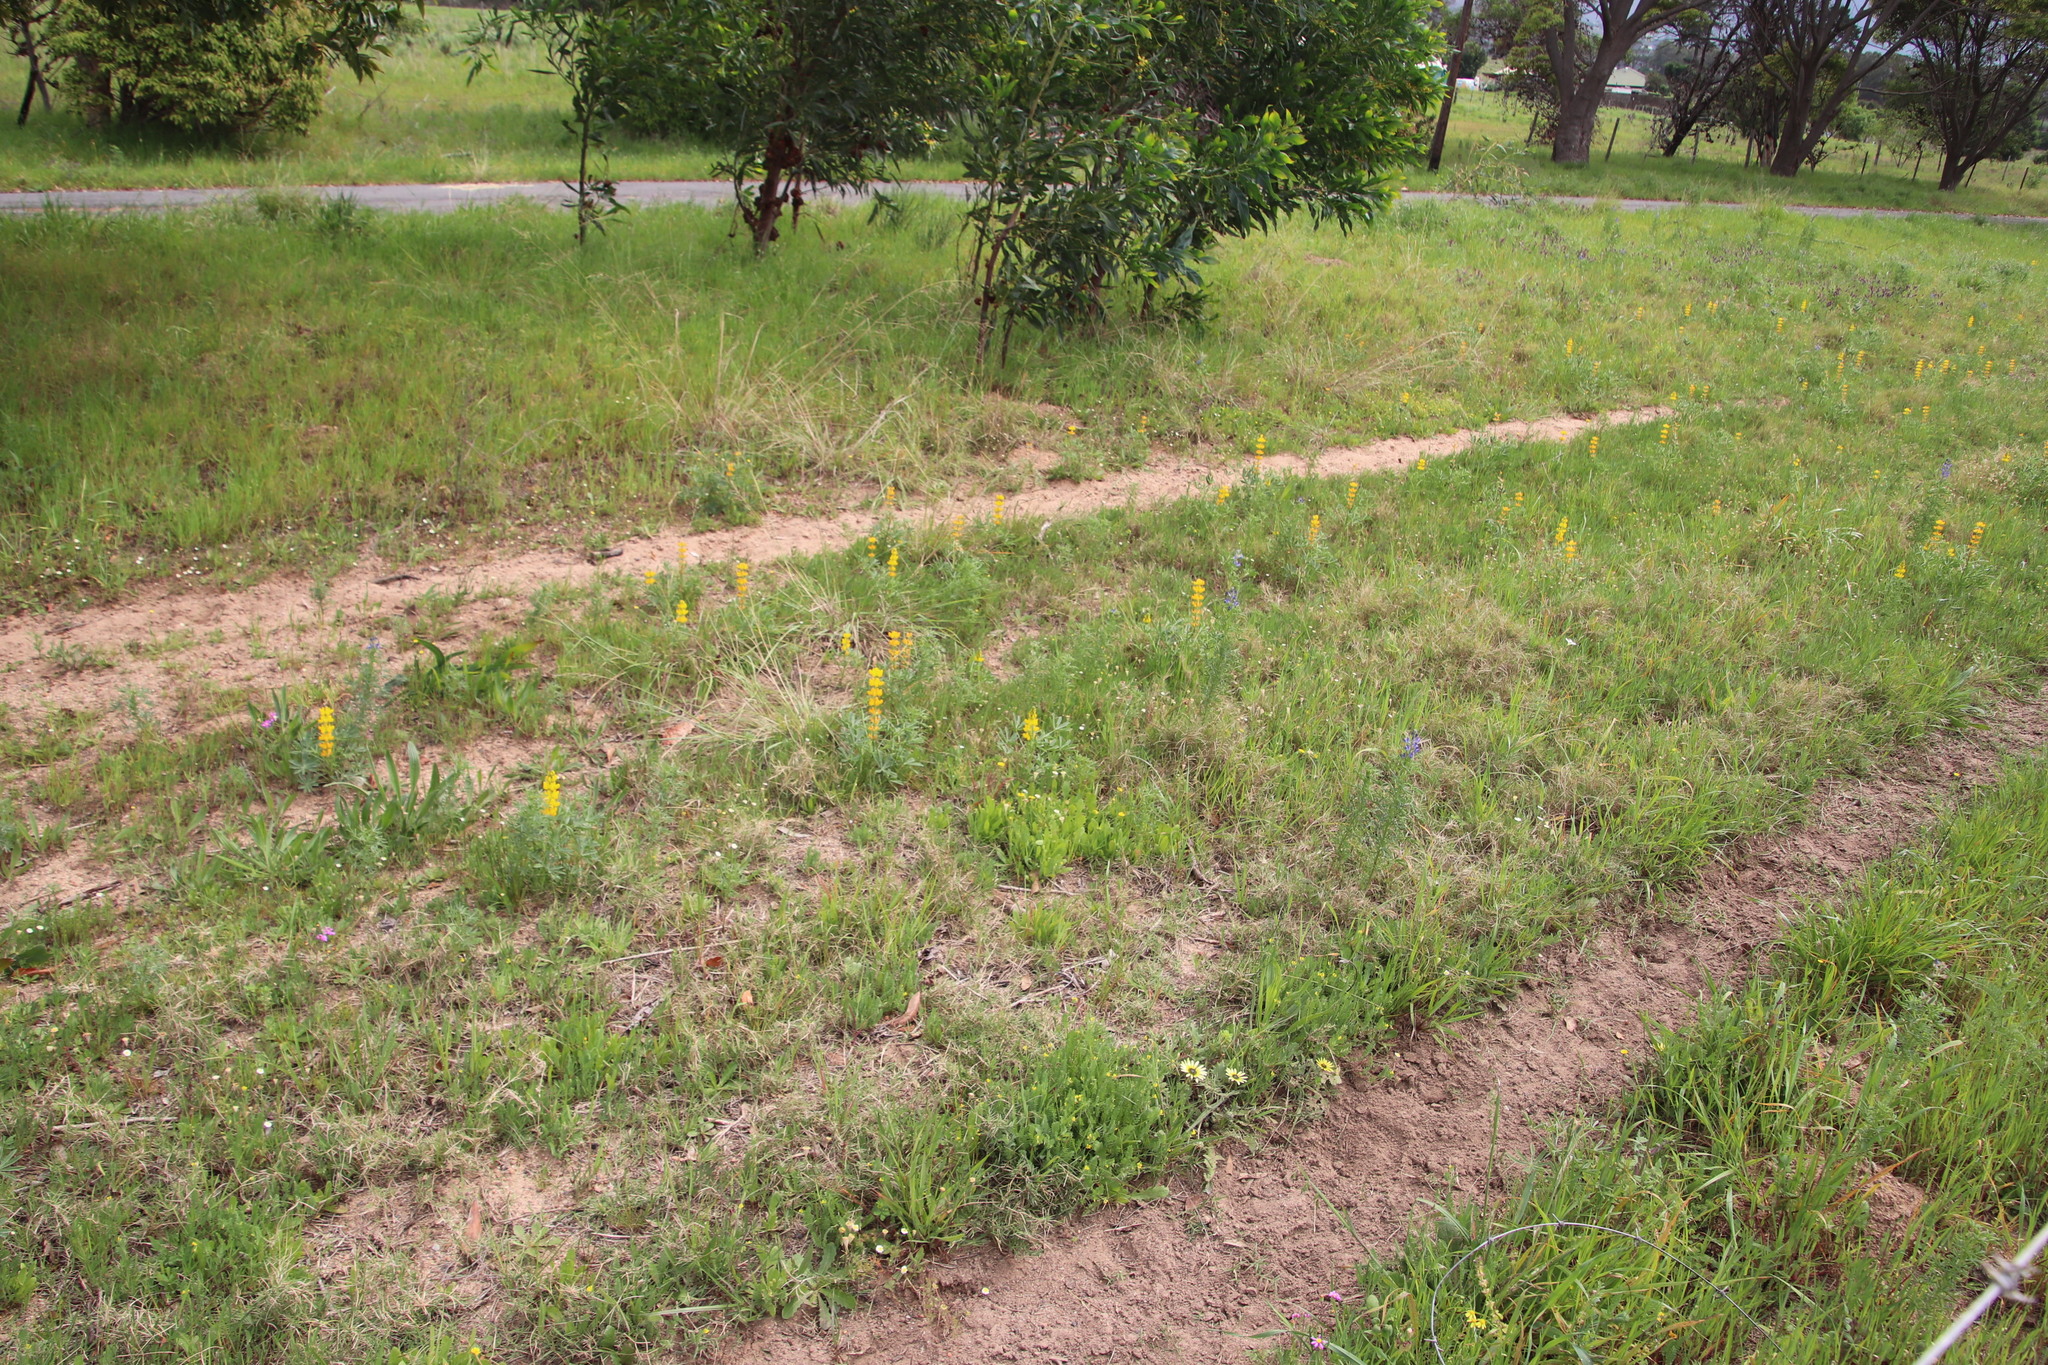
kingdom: Plantae
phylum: Tracheophyta
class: Magnoliopsida
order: Fabales
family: Fabaceae
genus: Lupinus
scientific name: Lupinus luteus
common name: European yellow lupine
